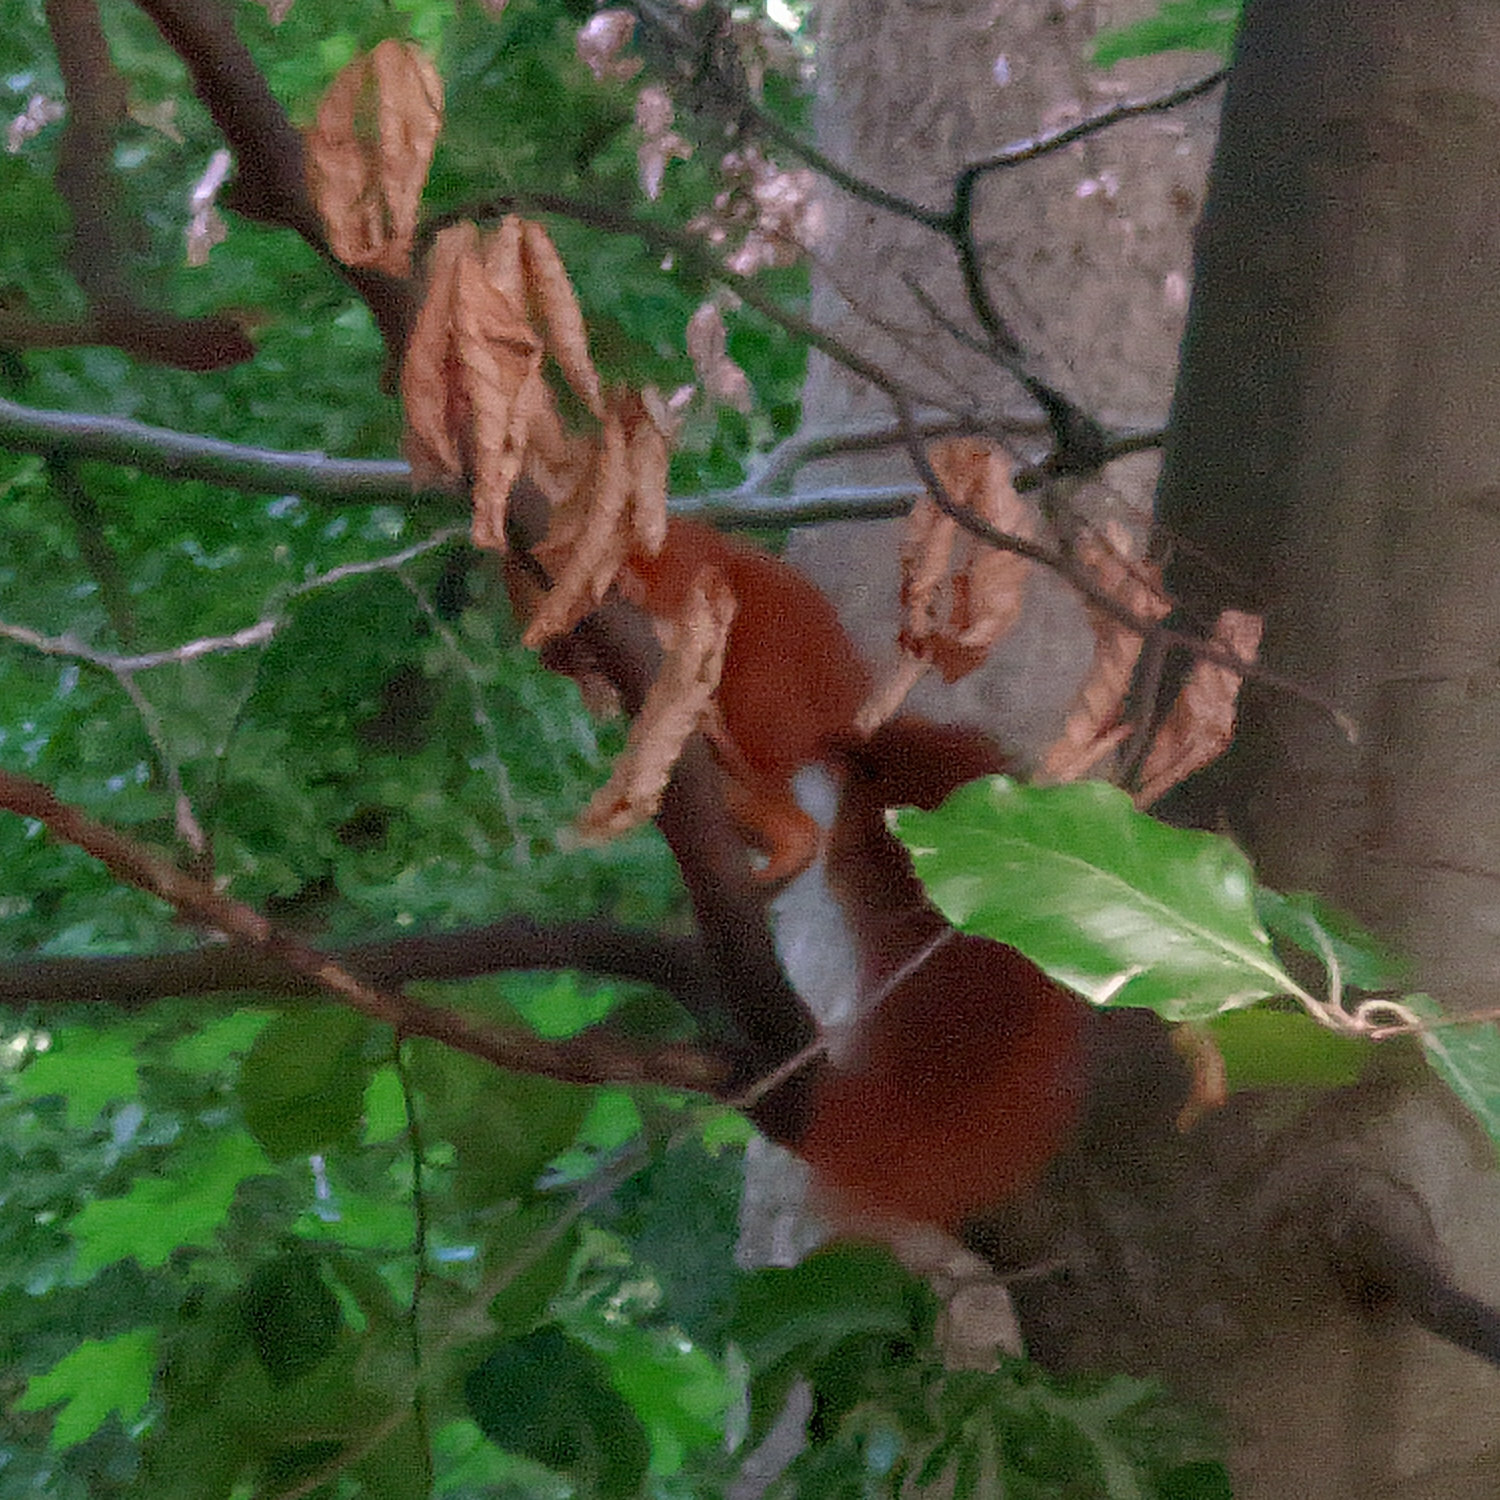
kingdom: Animalia
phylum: Chordata
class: Mammalia
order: Rodentia
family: Sciuridae
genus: Sciurus
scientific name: Sciurus vulgaris
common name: Eurasian red squirrel
